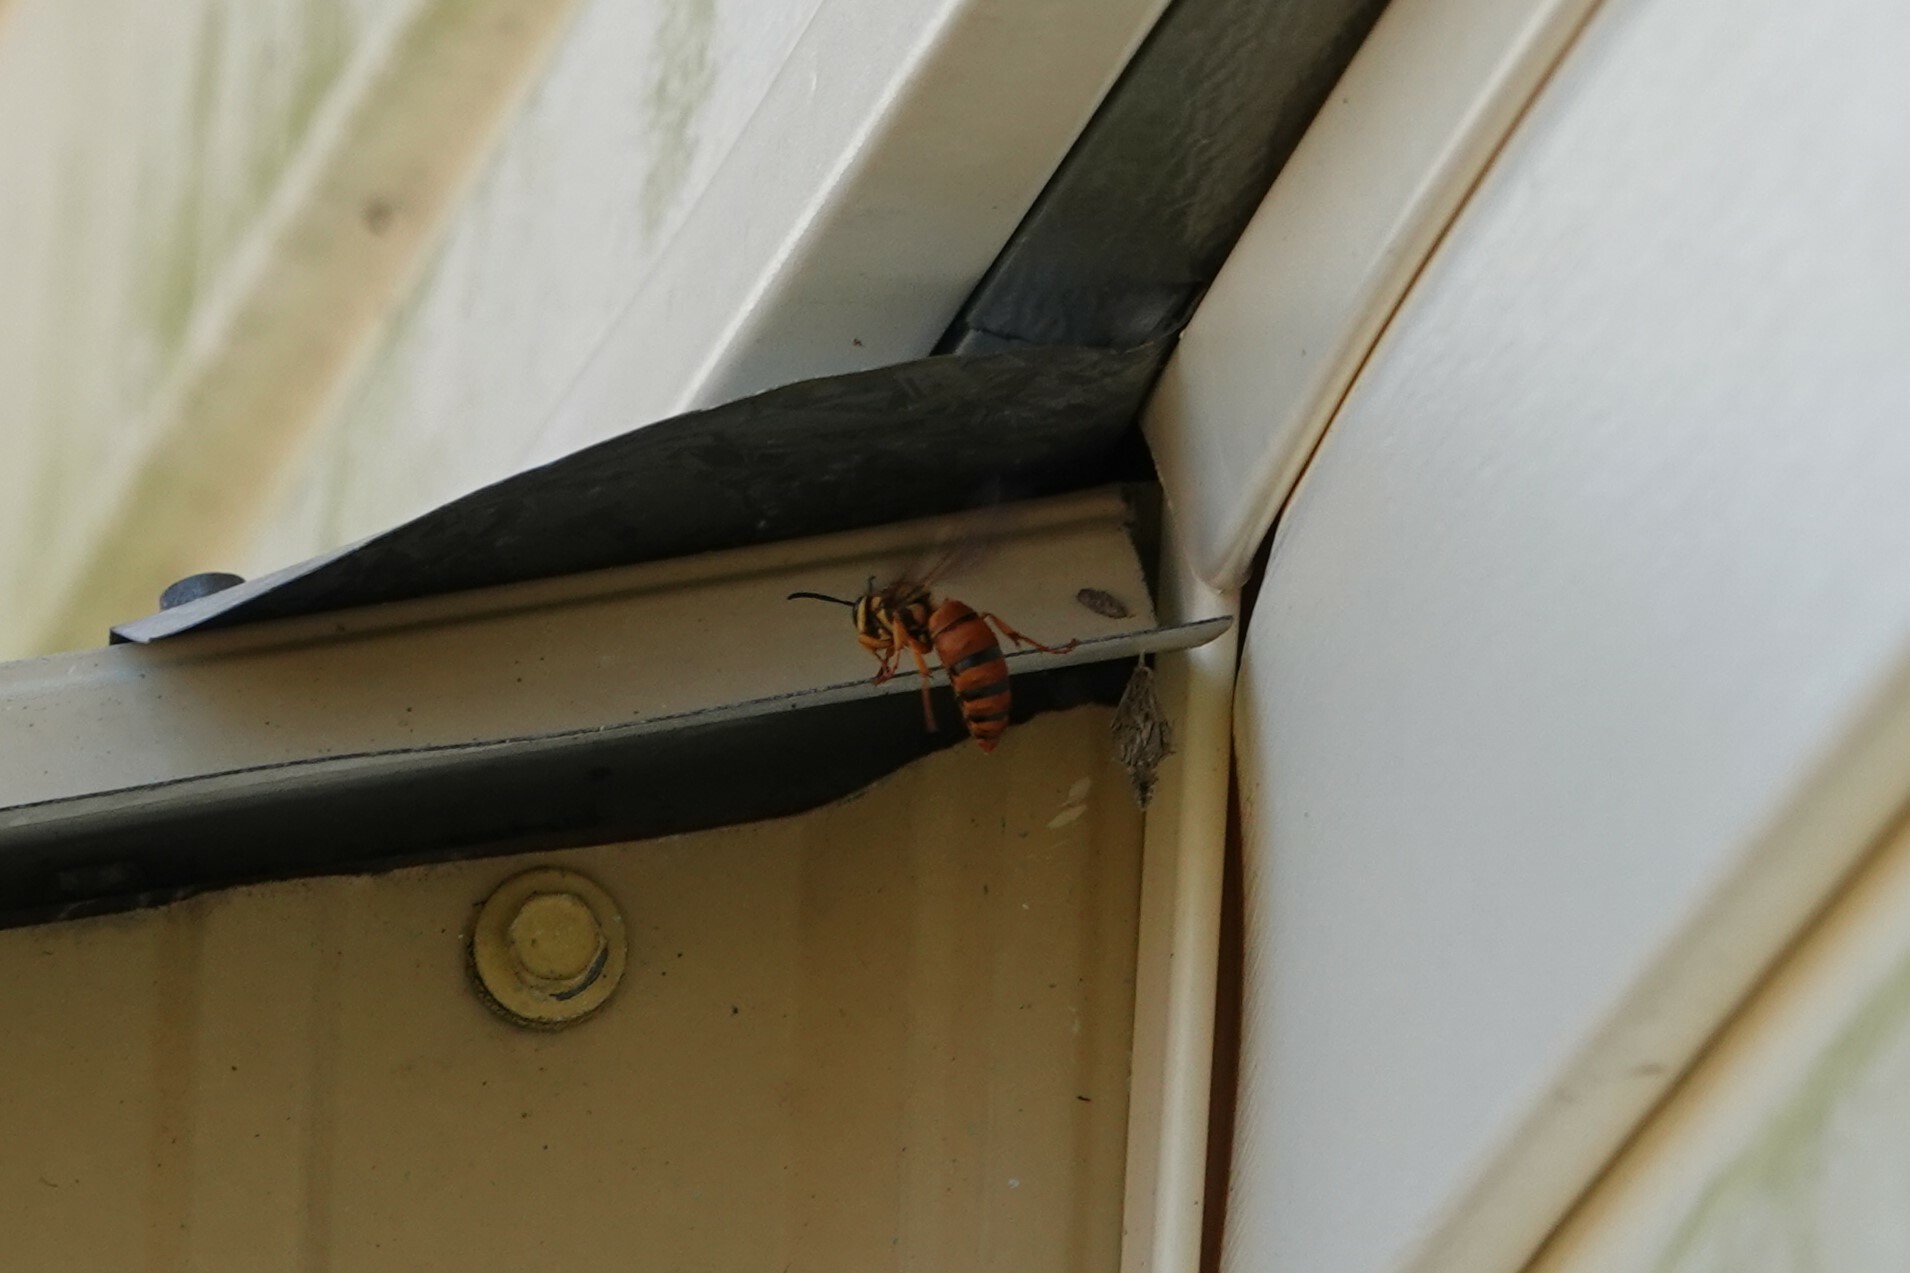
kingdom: Animalia
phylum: Arthropoda
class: Insecta
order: Hymenoptera
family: Vespidae
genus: Vespula
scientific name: Vespula squamosa
